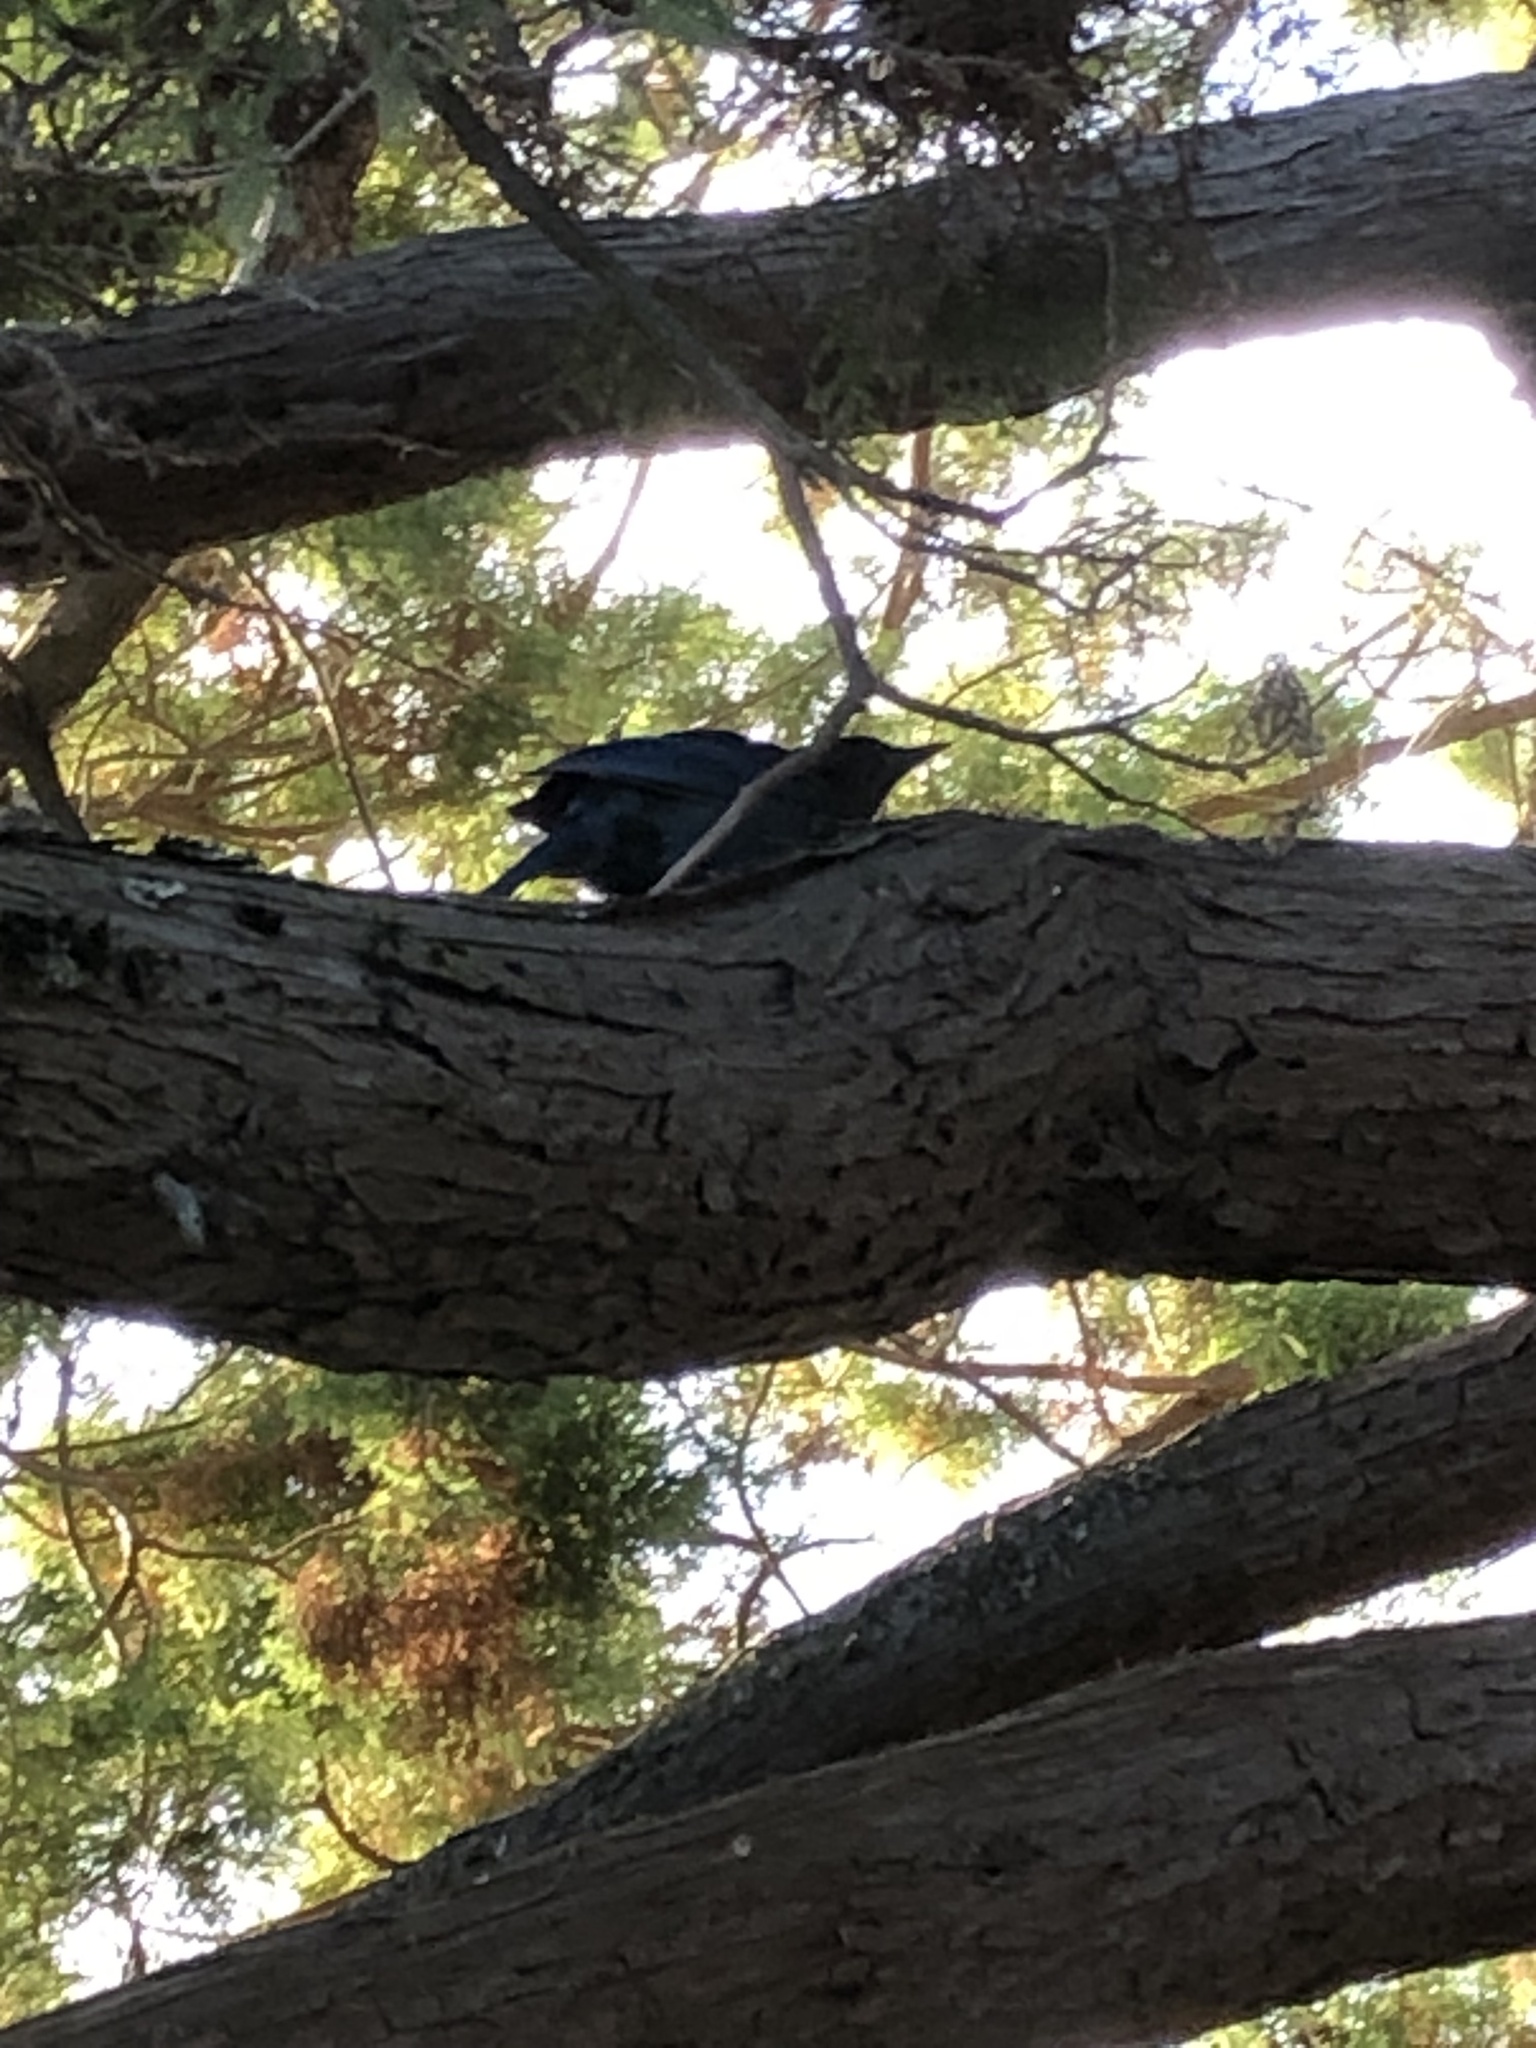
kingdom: Animalia
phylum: Chordata
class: Aves
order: Passeriformes
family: Corvidae
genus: Cyanocitta
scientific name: Cyanocitta stelleri
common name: Steller's jay
